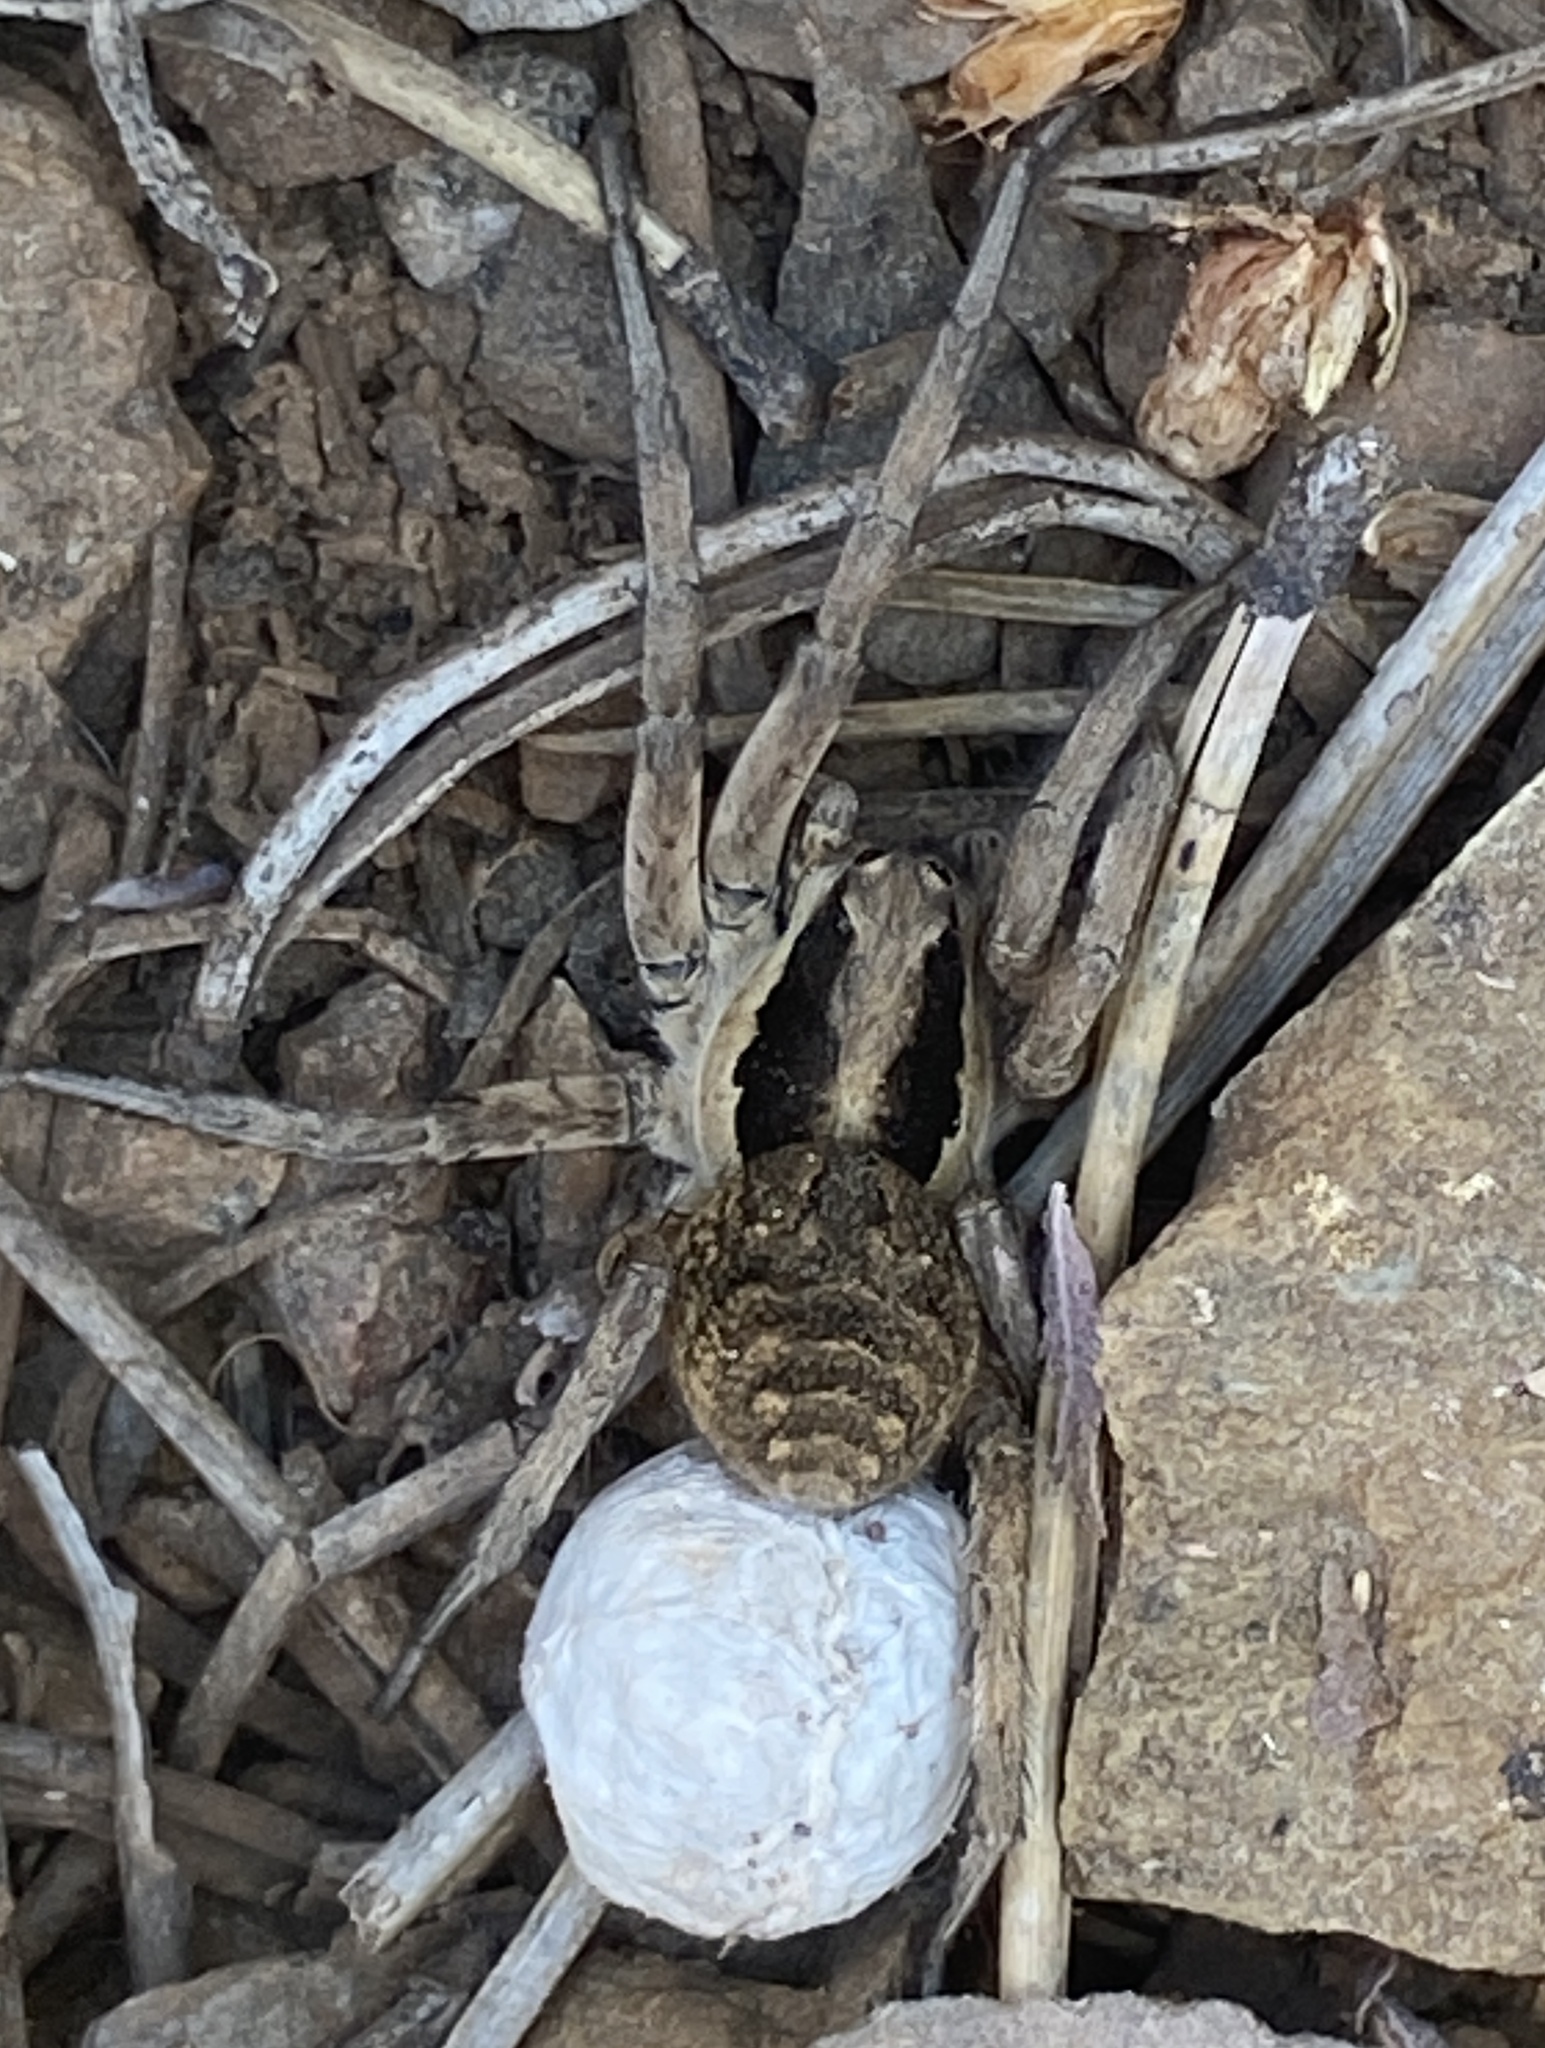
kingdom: Animalia
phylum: Arthropoda
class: Arachnida
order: Araneae
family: Lycosidae
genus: Lycosa
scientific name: Lycosa praegrandis
